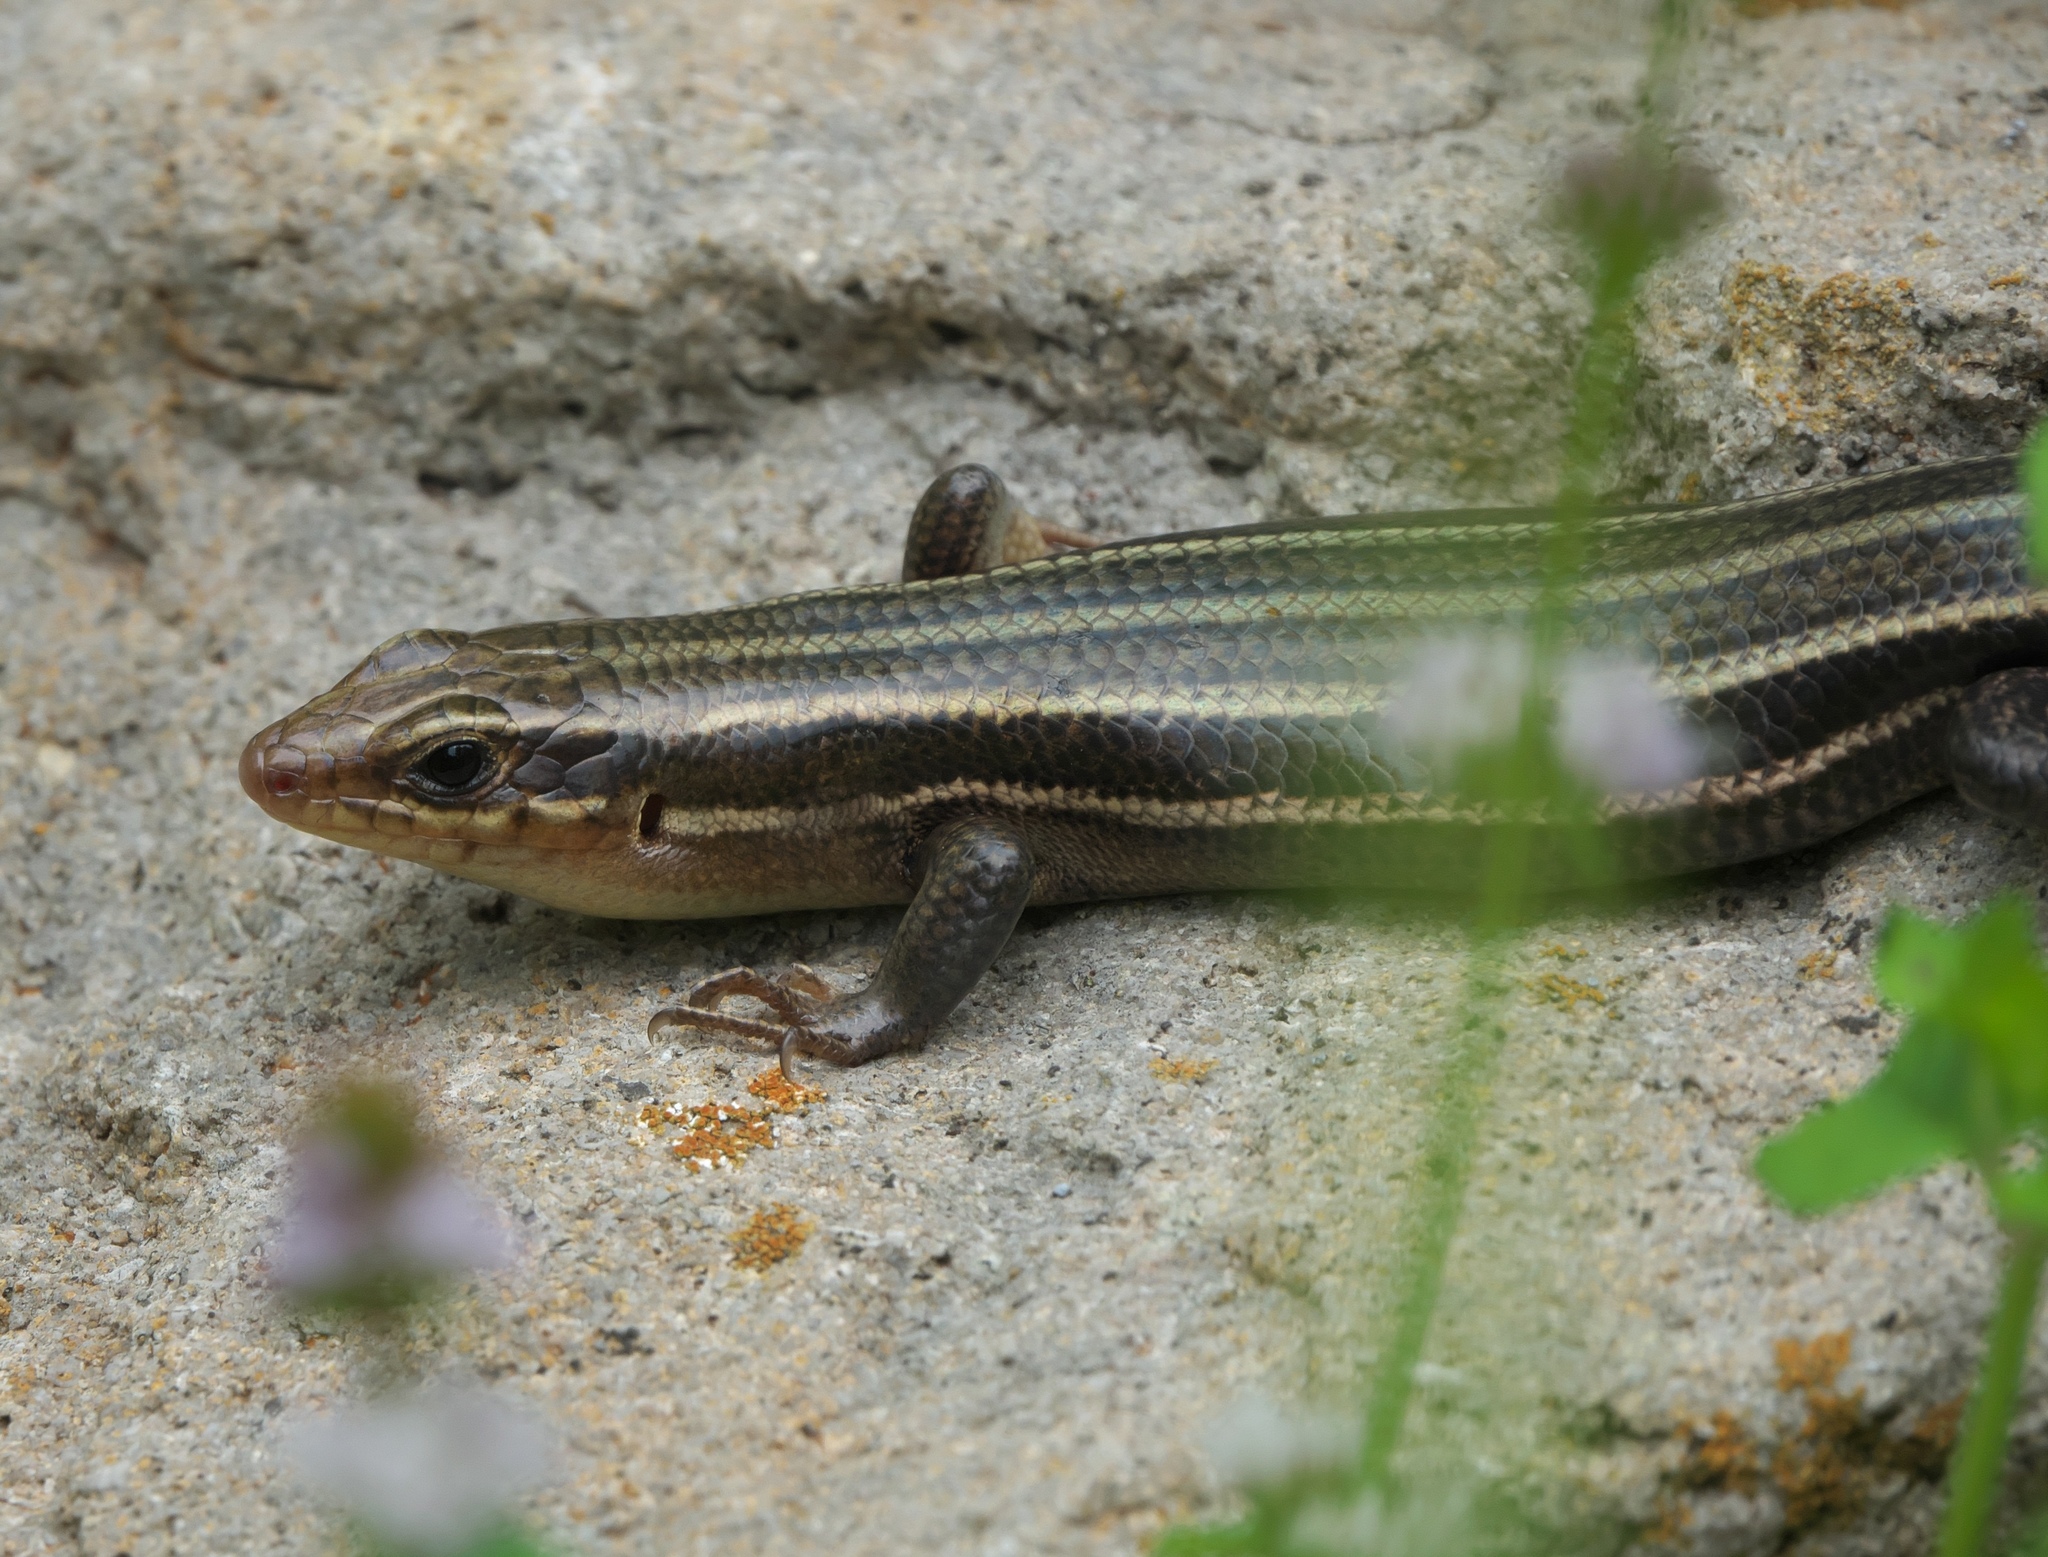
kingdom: Animalia
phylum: Chordata
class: Squamata
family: Scincidae
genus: Plestiodon
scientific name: Plestiodon fasciatus
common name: Five-lined skink
